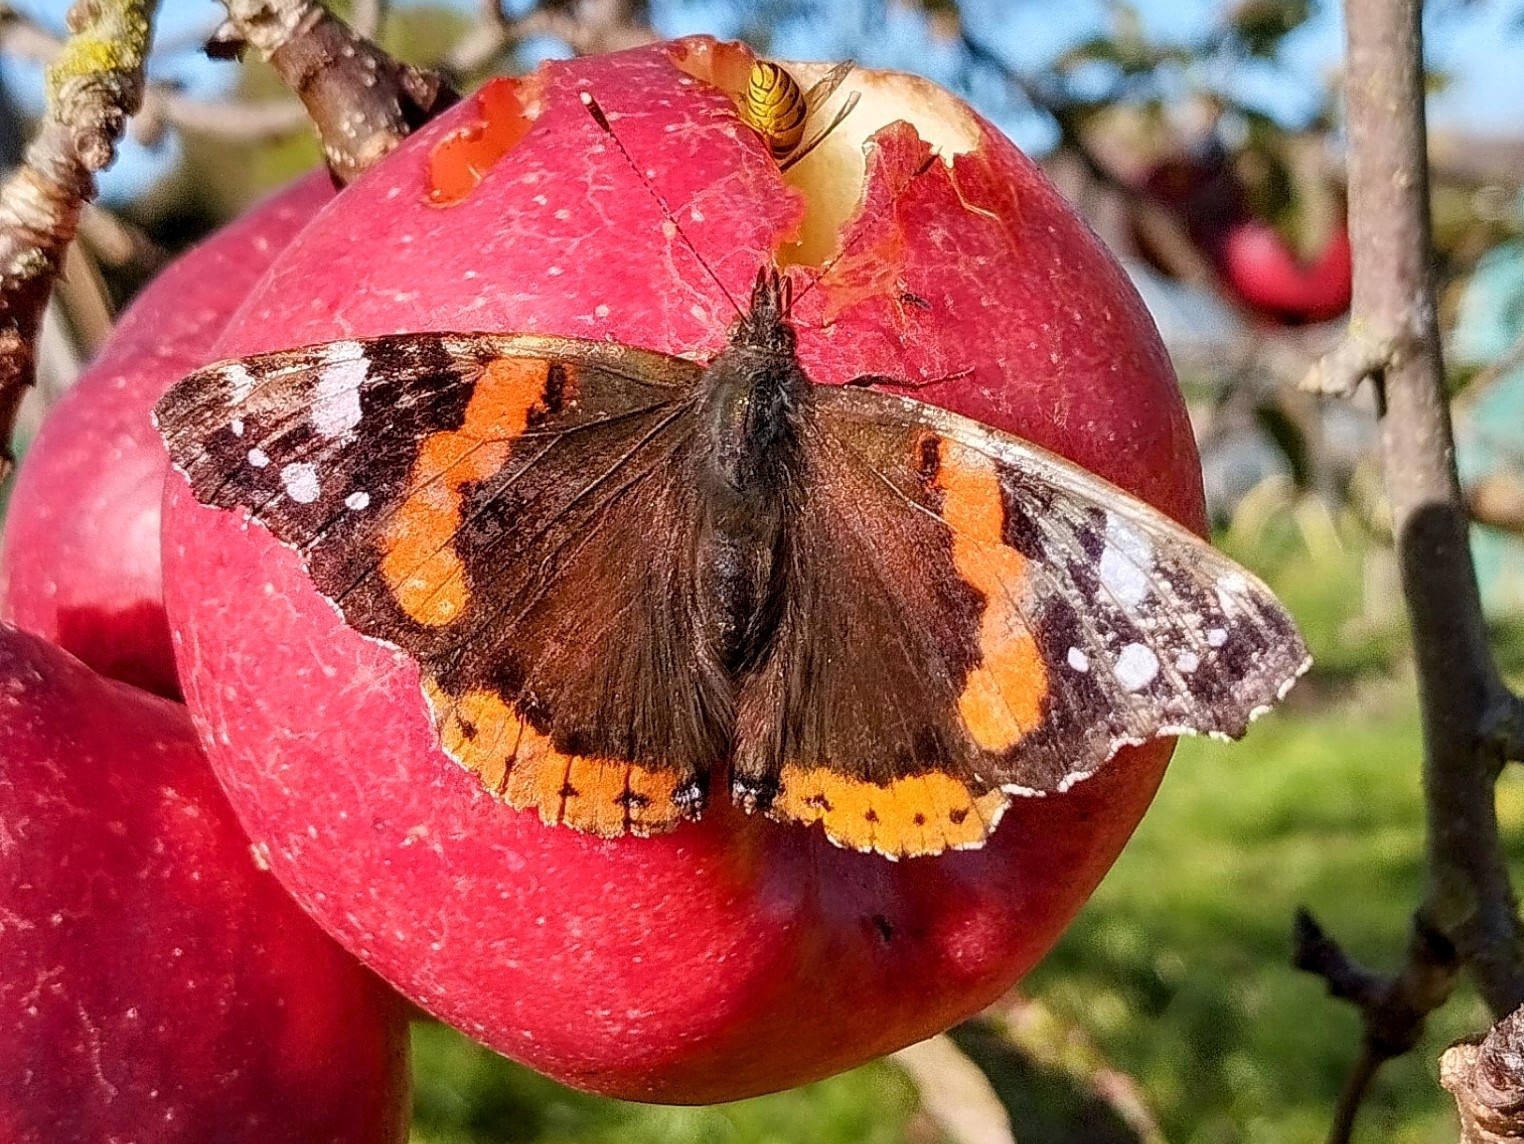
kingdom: Animalia
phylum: Arthropoda
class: Insecta
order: Lepidoptera
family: Nymphalidae
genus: Vanessa
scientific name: Vanessa atalanta
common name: Red admiral
